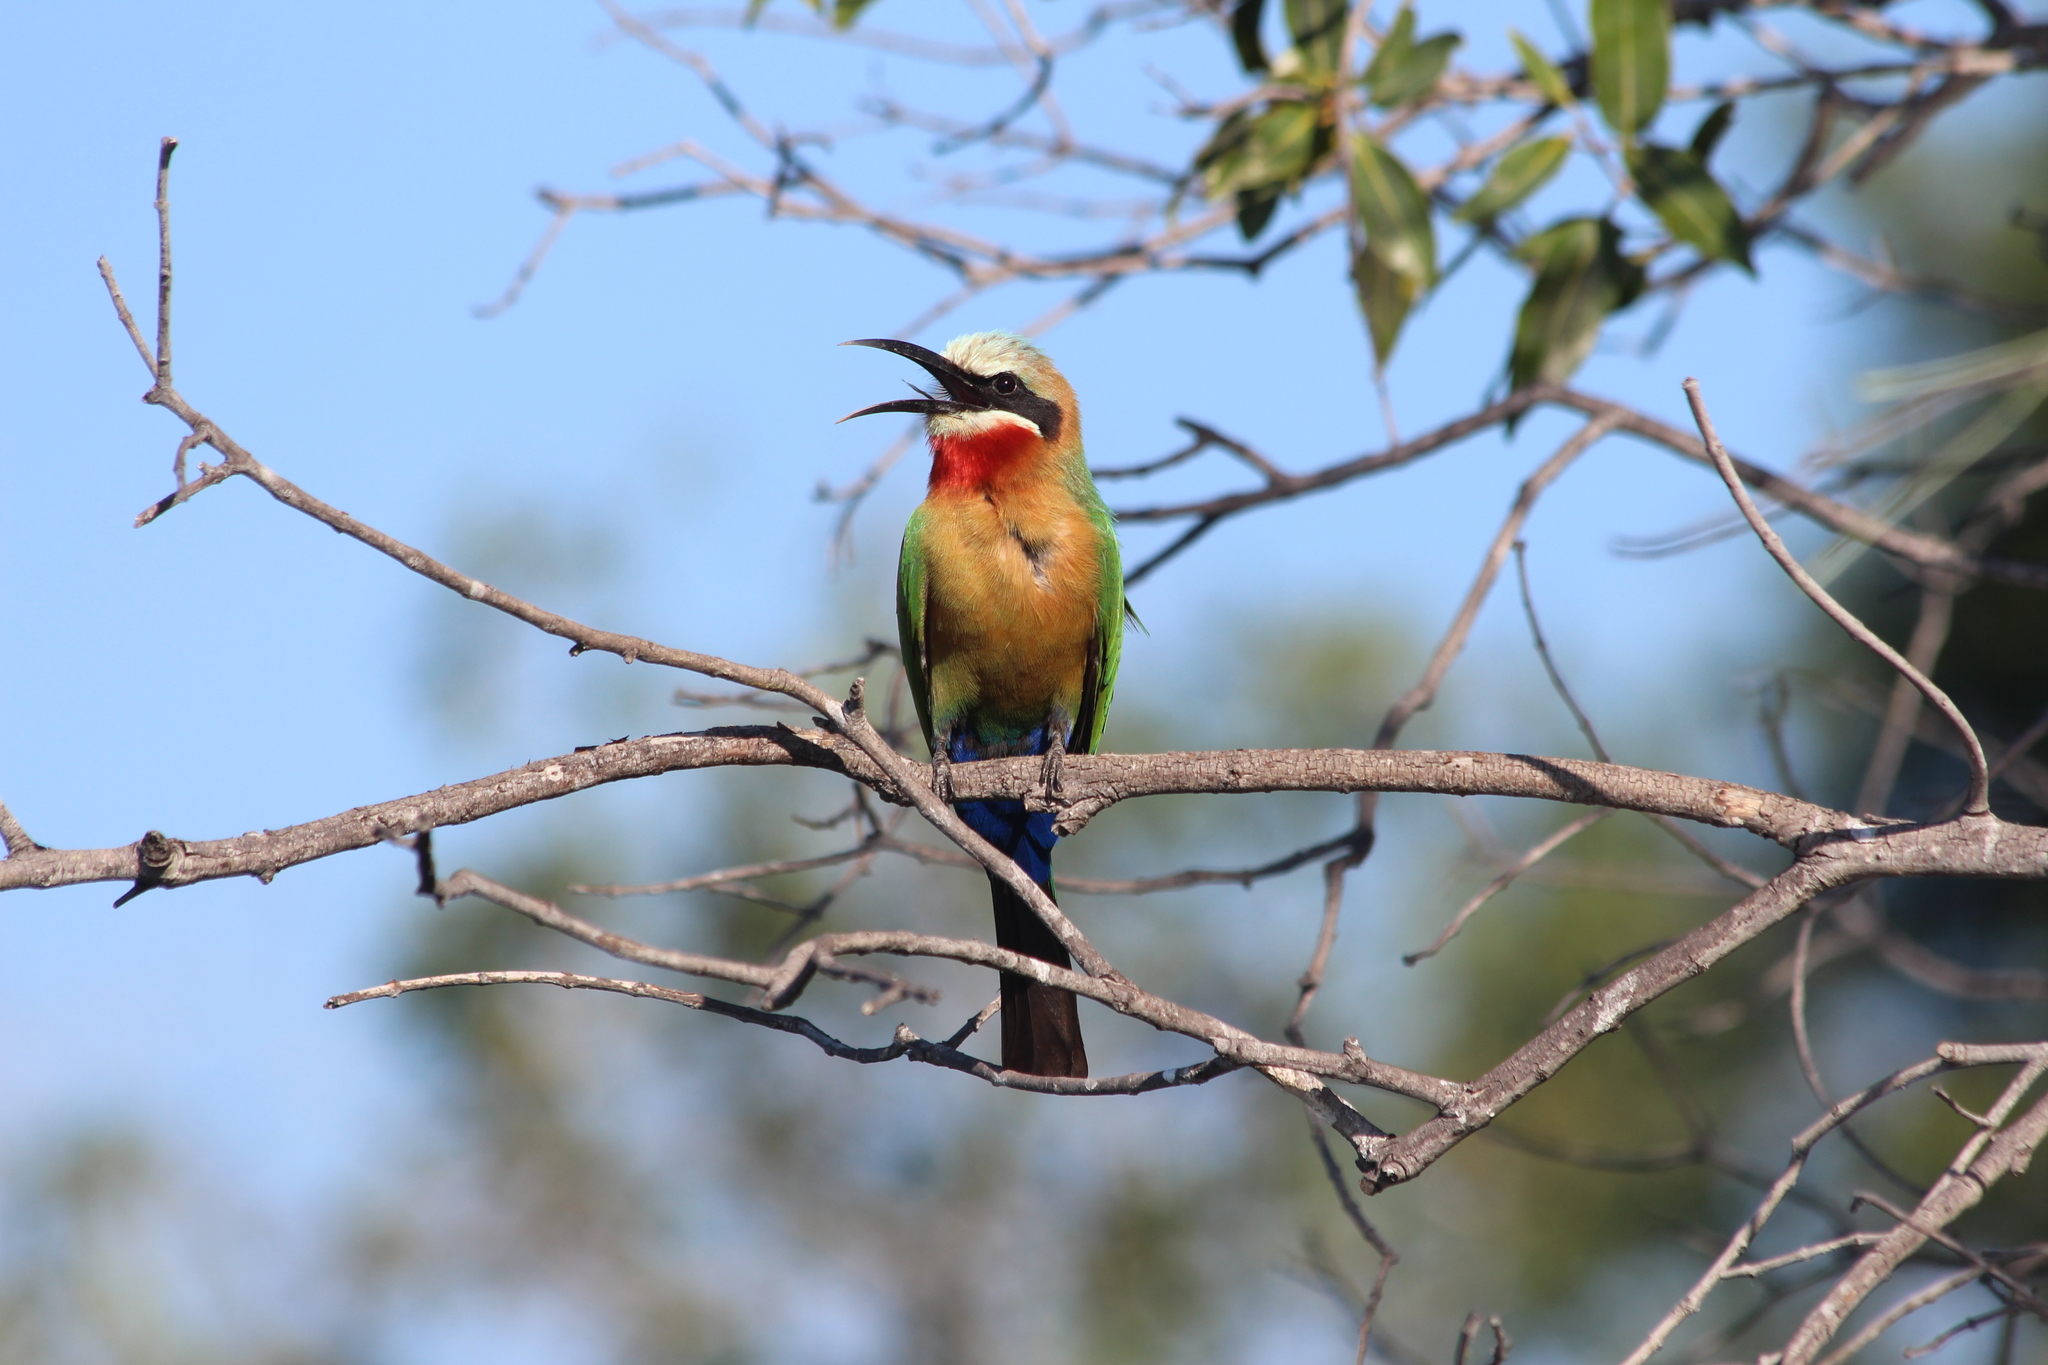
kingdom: Animalia
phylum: Chordata
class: Aves
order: Coraciiformes
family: Meropidae
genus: Merops
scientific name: Merops bullockoides
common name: White-fronted bee-eater
